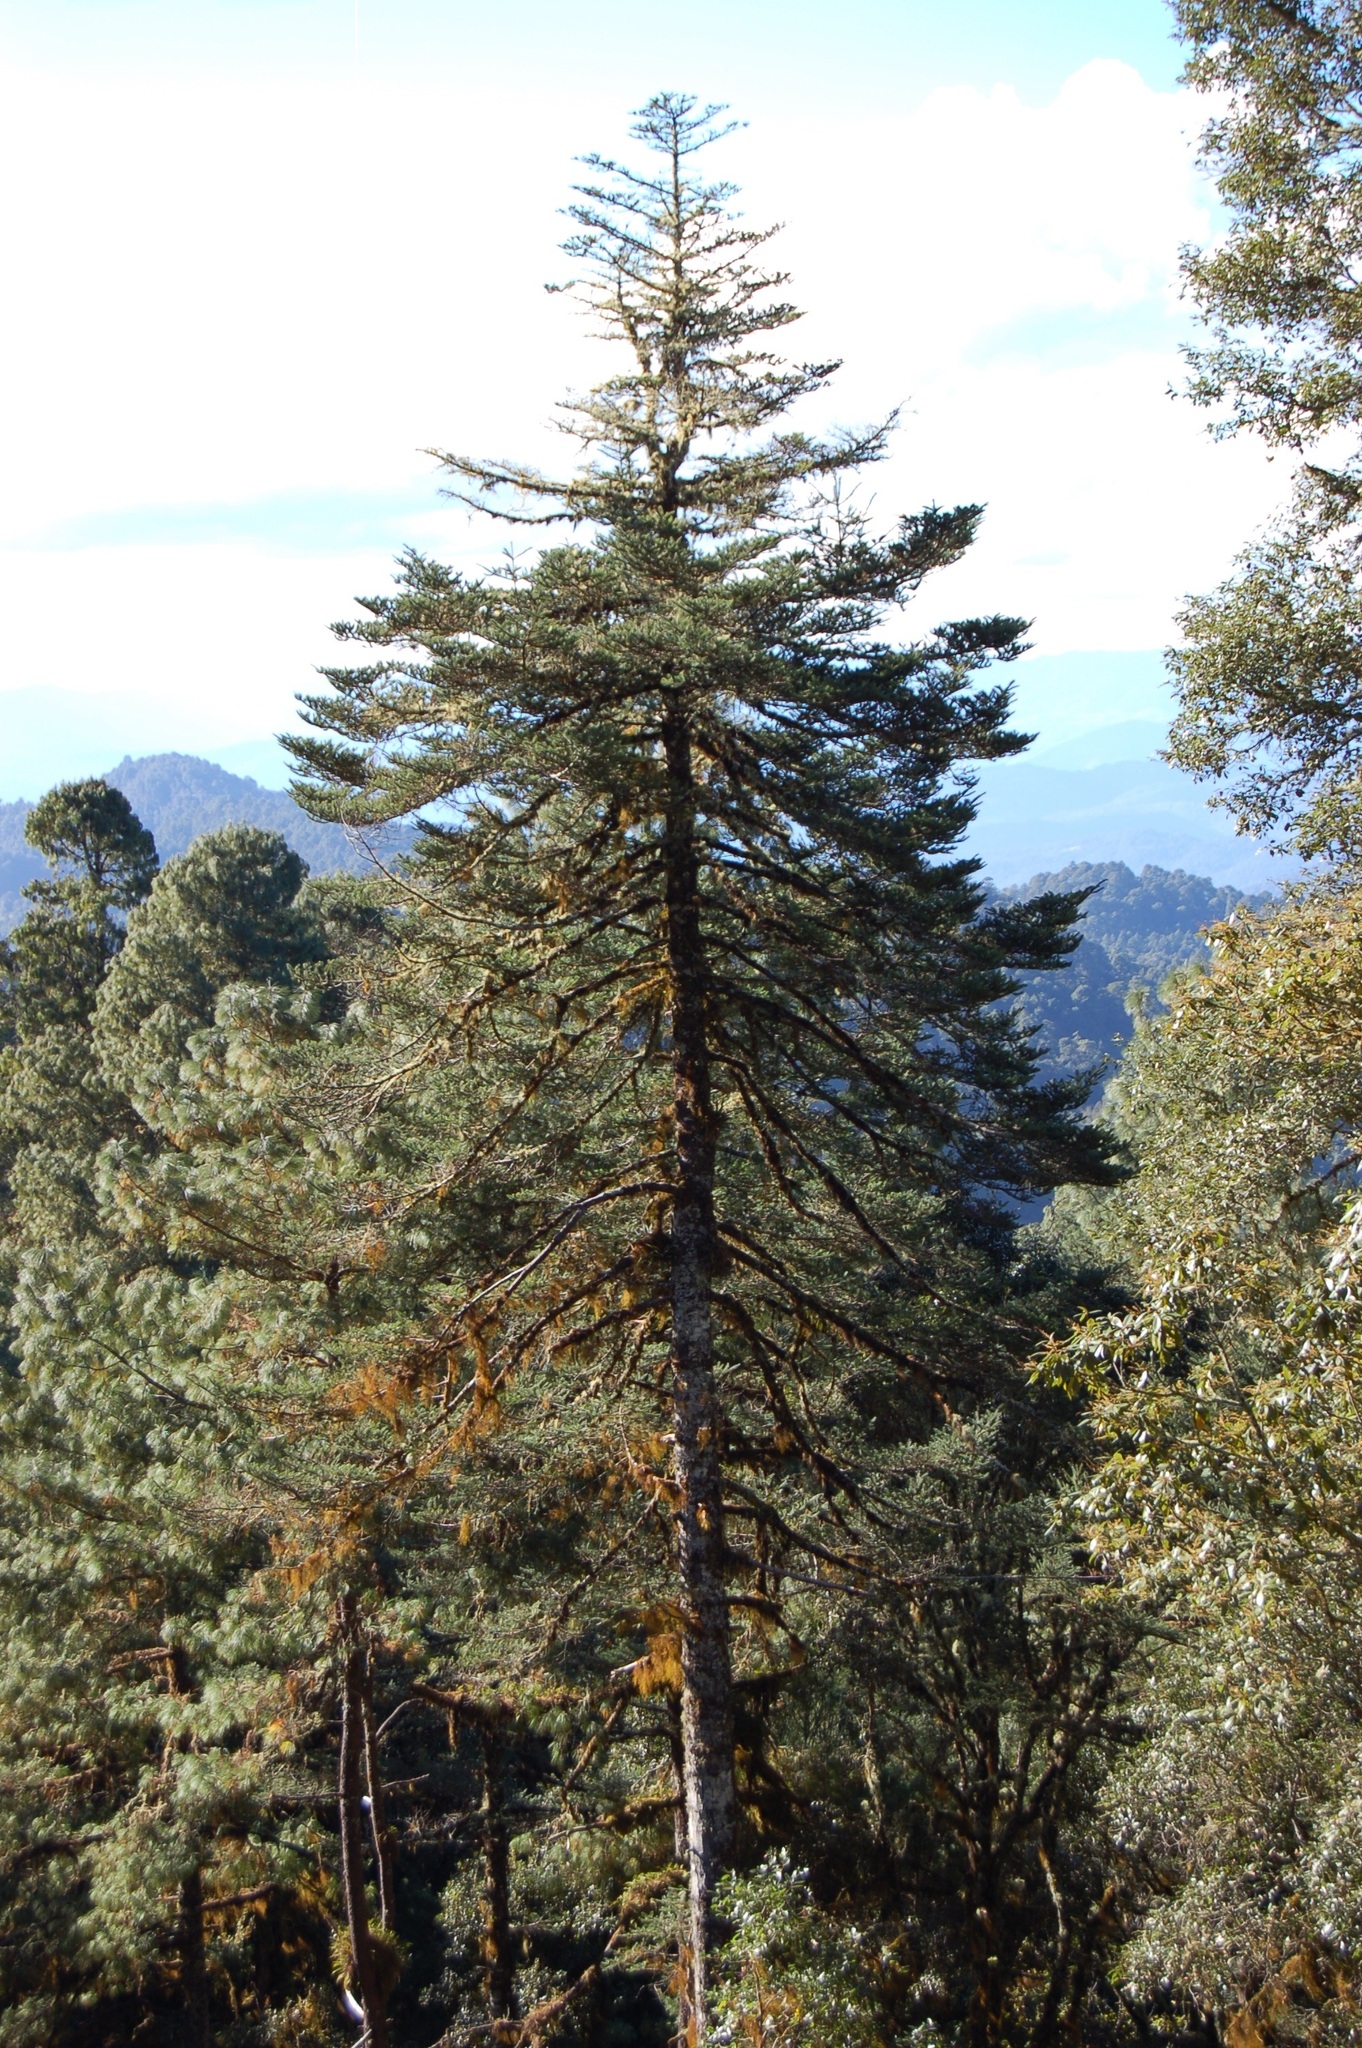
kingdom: Plantae
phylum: Tracheophyta
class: Pinopsida
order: Pinales
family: Pinaceae
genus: Abies
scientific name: Abies guatemalensis
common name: Guatemalan fir
